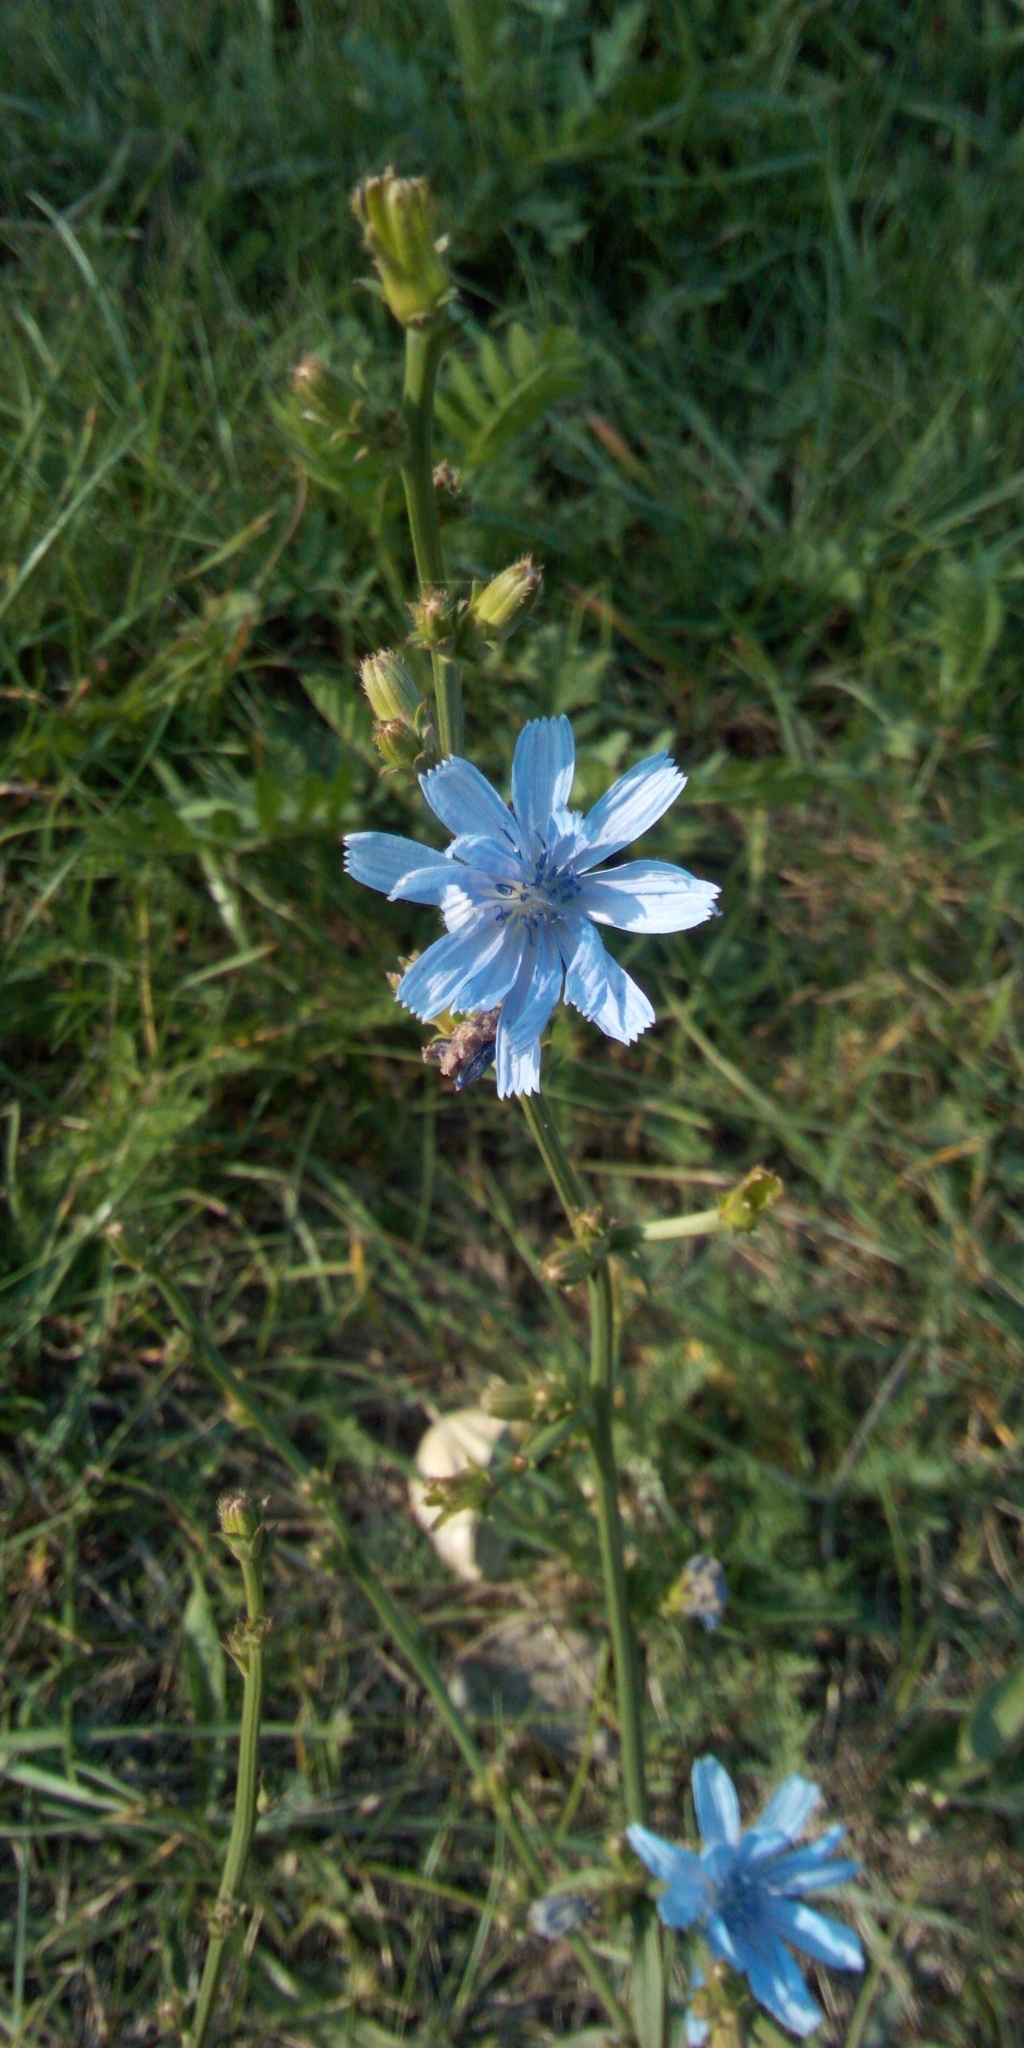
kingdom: Plantae
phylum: Tracheophyta
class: Magnoliopsida
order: Asterales
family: Asteraceae
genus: Cichorium
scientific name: Cichorium intybus
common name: Chicory
